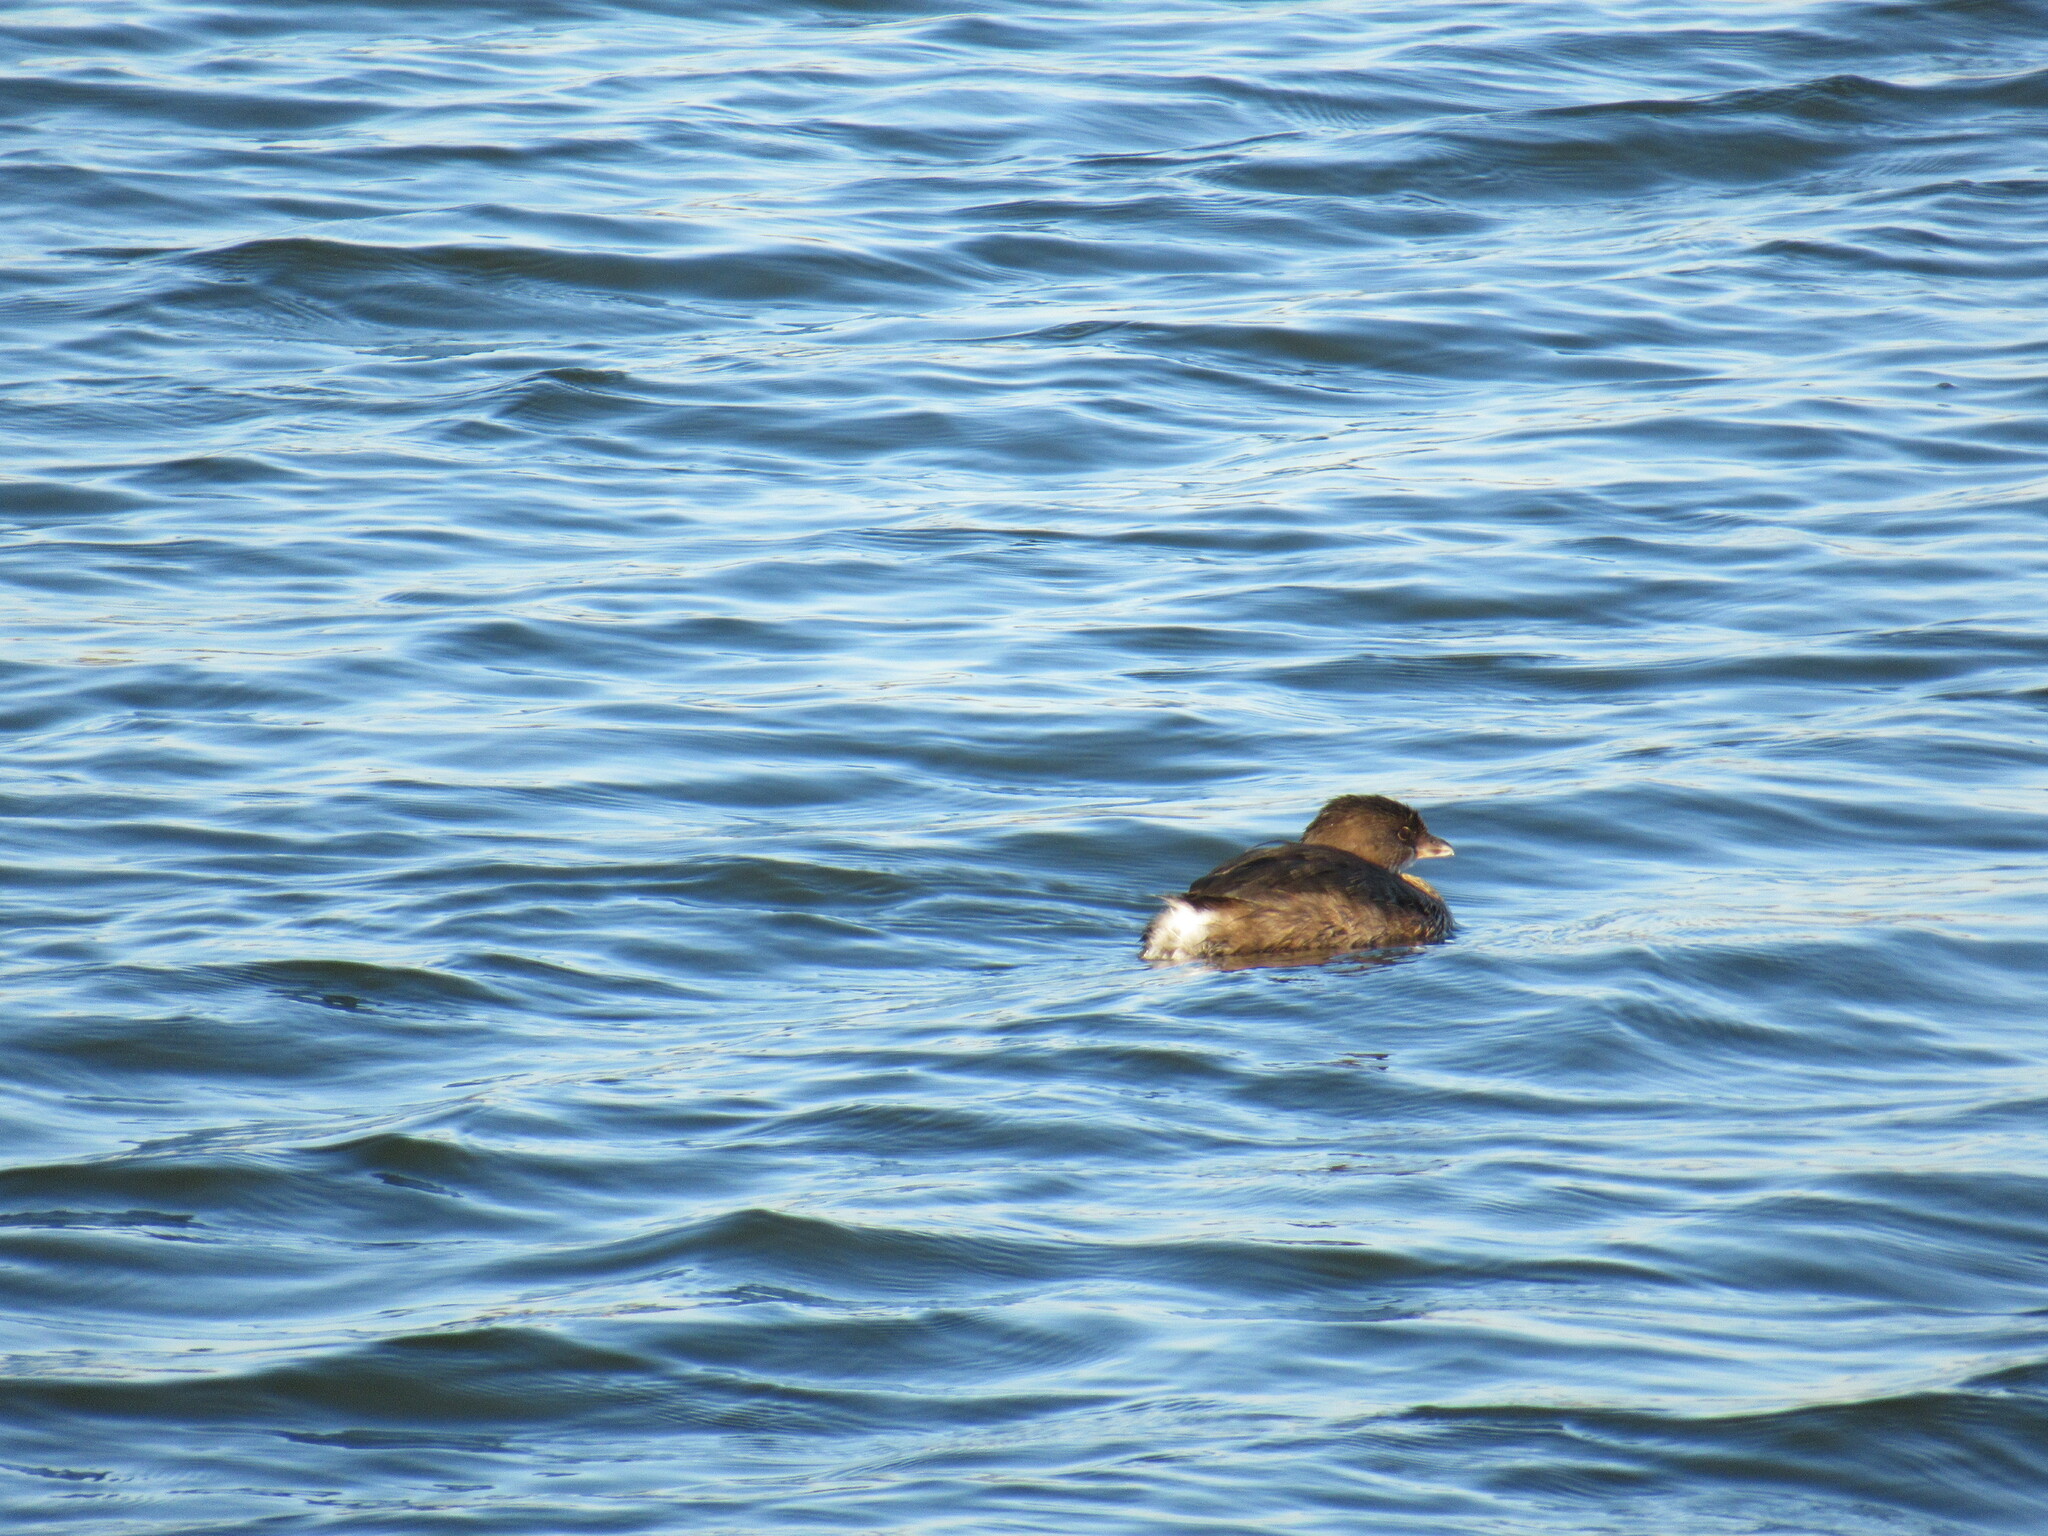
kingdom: Animalia
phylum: Chordata
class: Aves
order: Podicipediformes
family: Podicipedidae
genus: Podilymbus
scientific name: Podilymbus podiceps
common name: Pied-billed grebe
